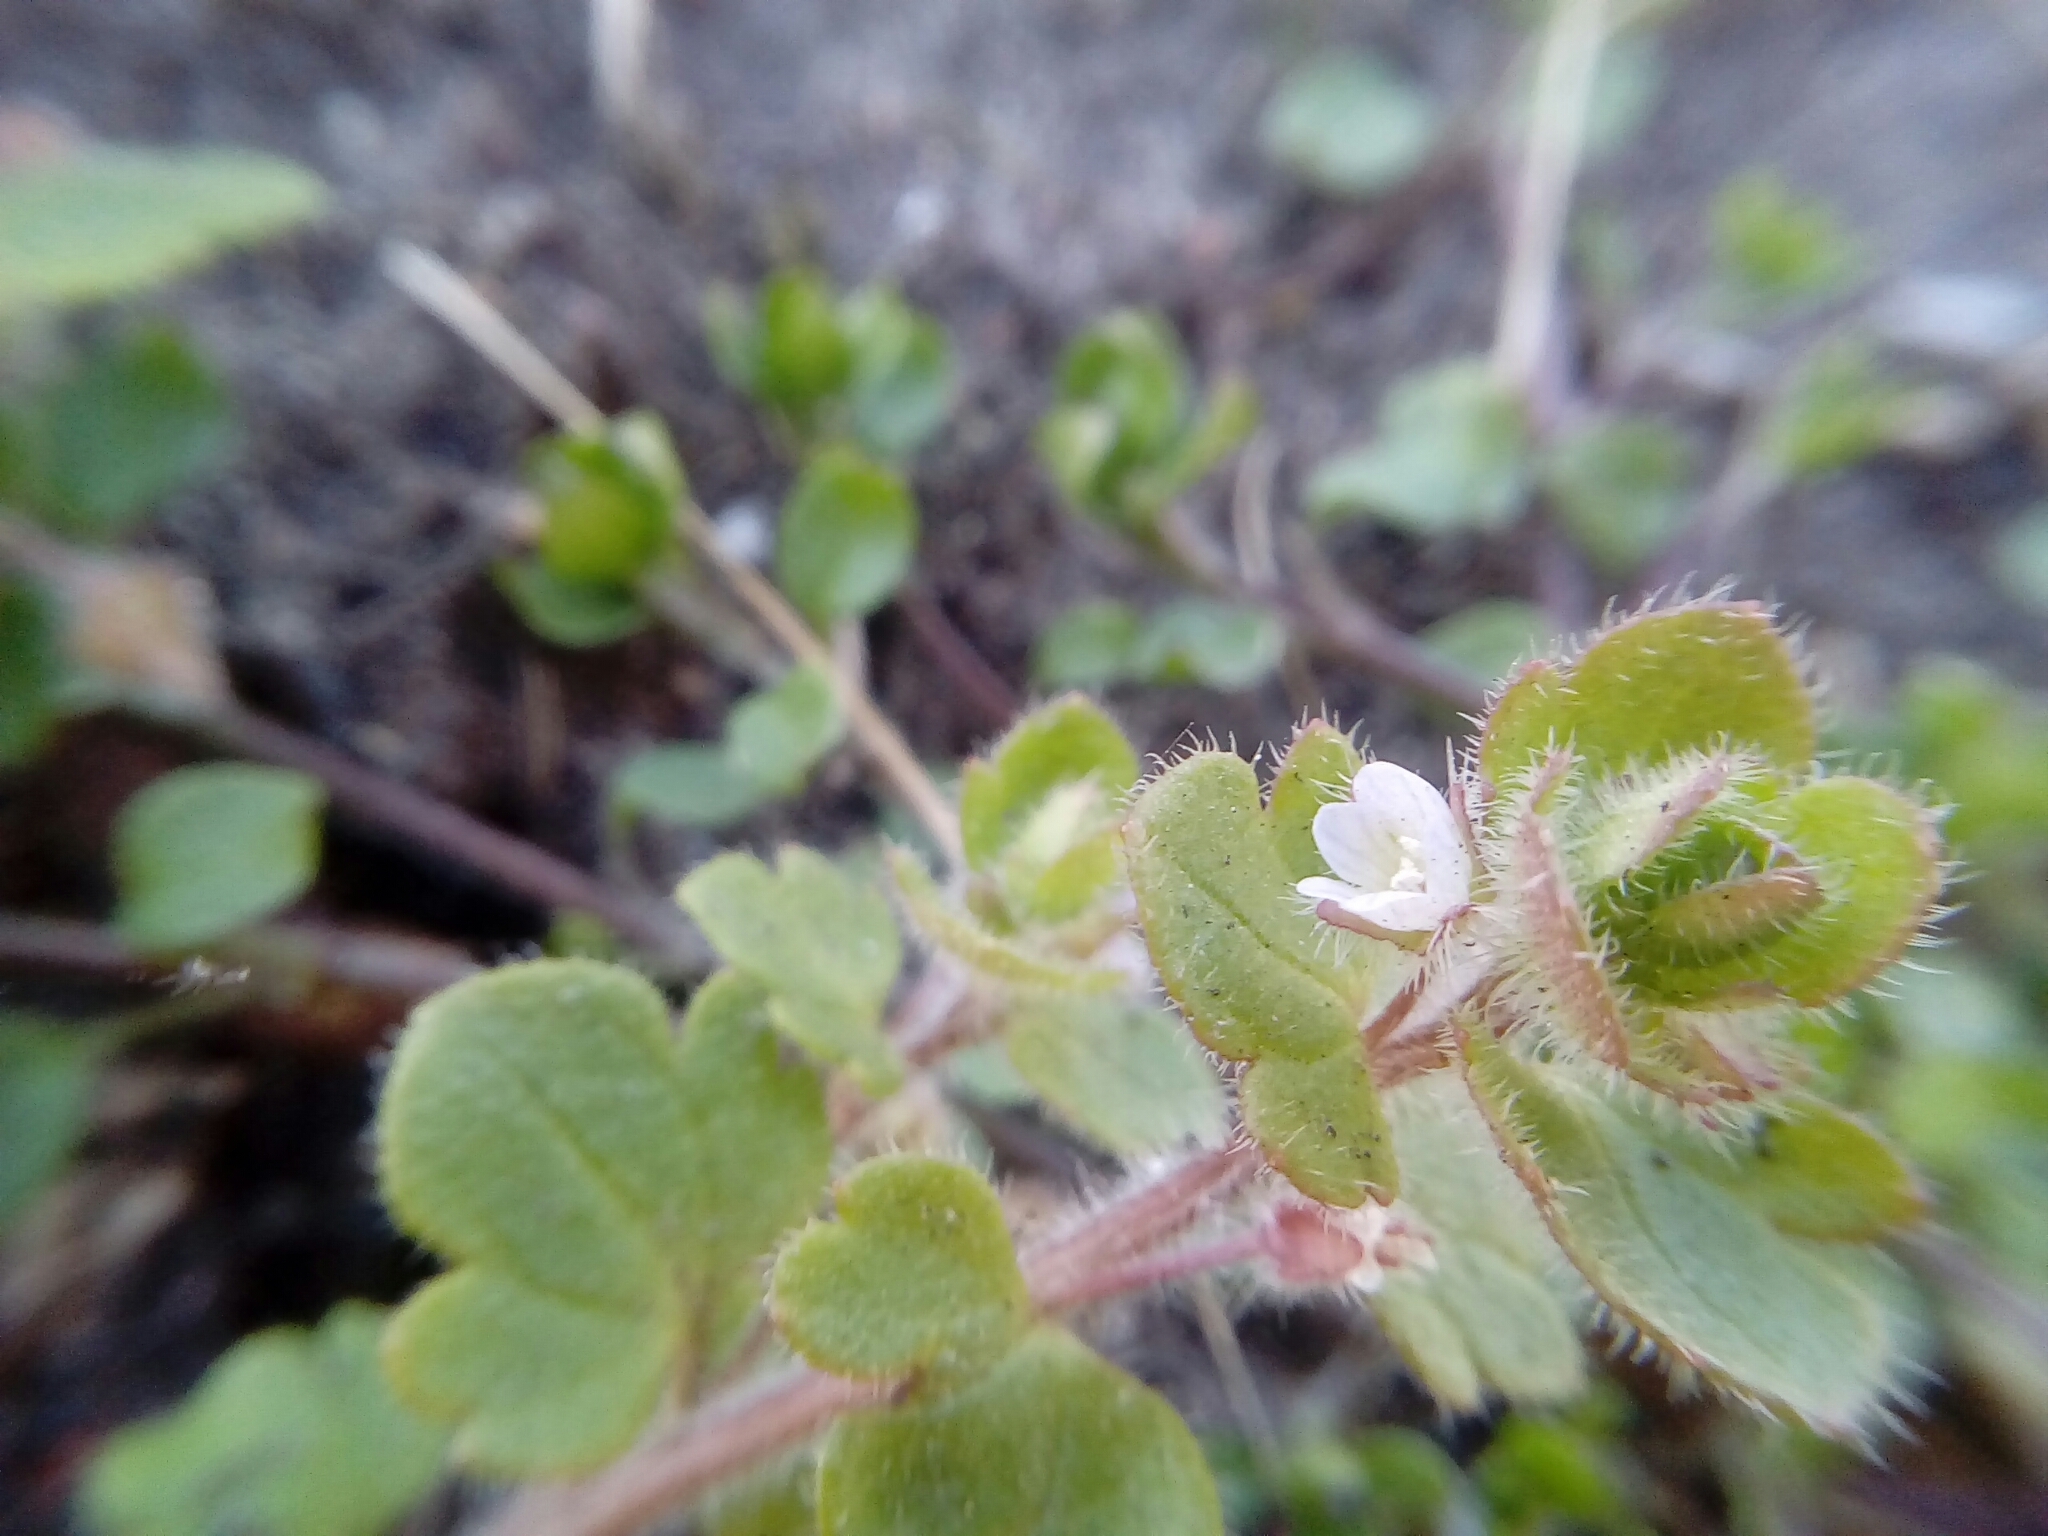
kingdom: Plantae
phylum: Tracheophyta
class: Magnoliopsida
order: Lamiales
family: Plantaginaceae
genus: Veronica
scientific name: Veronica sublobata
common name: False ivy-leaved speedwell
